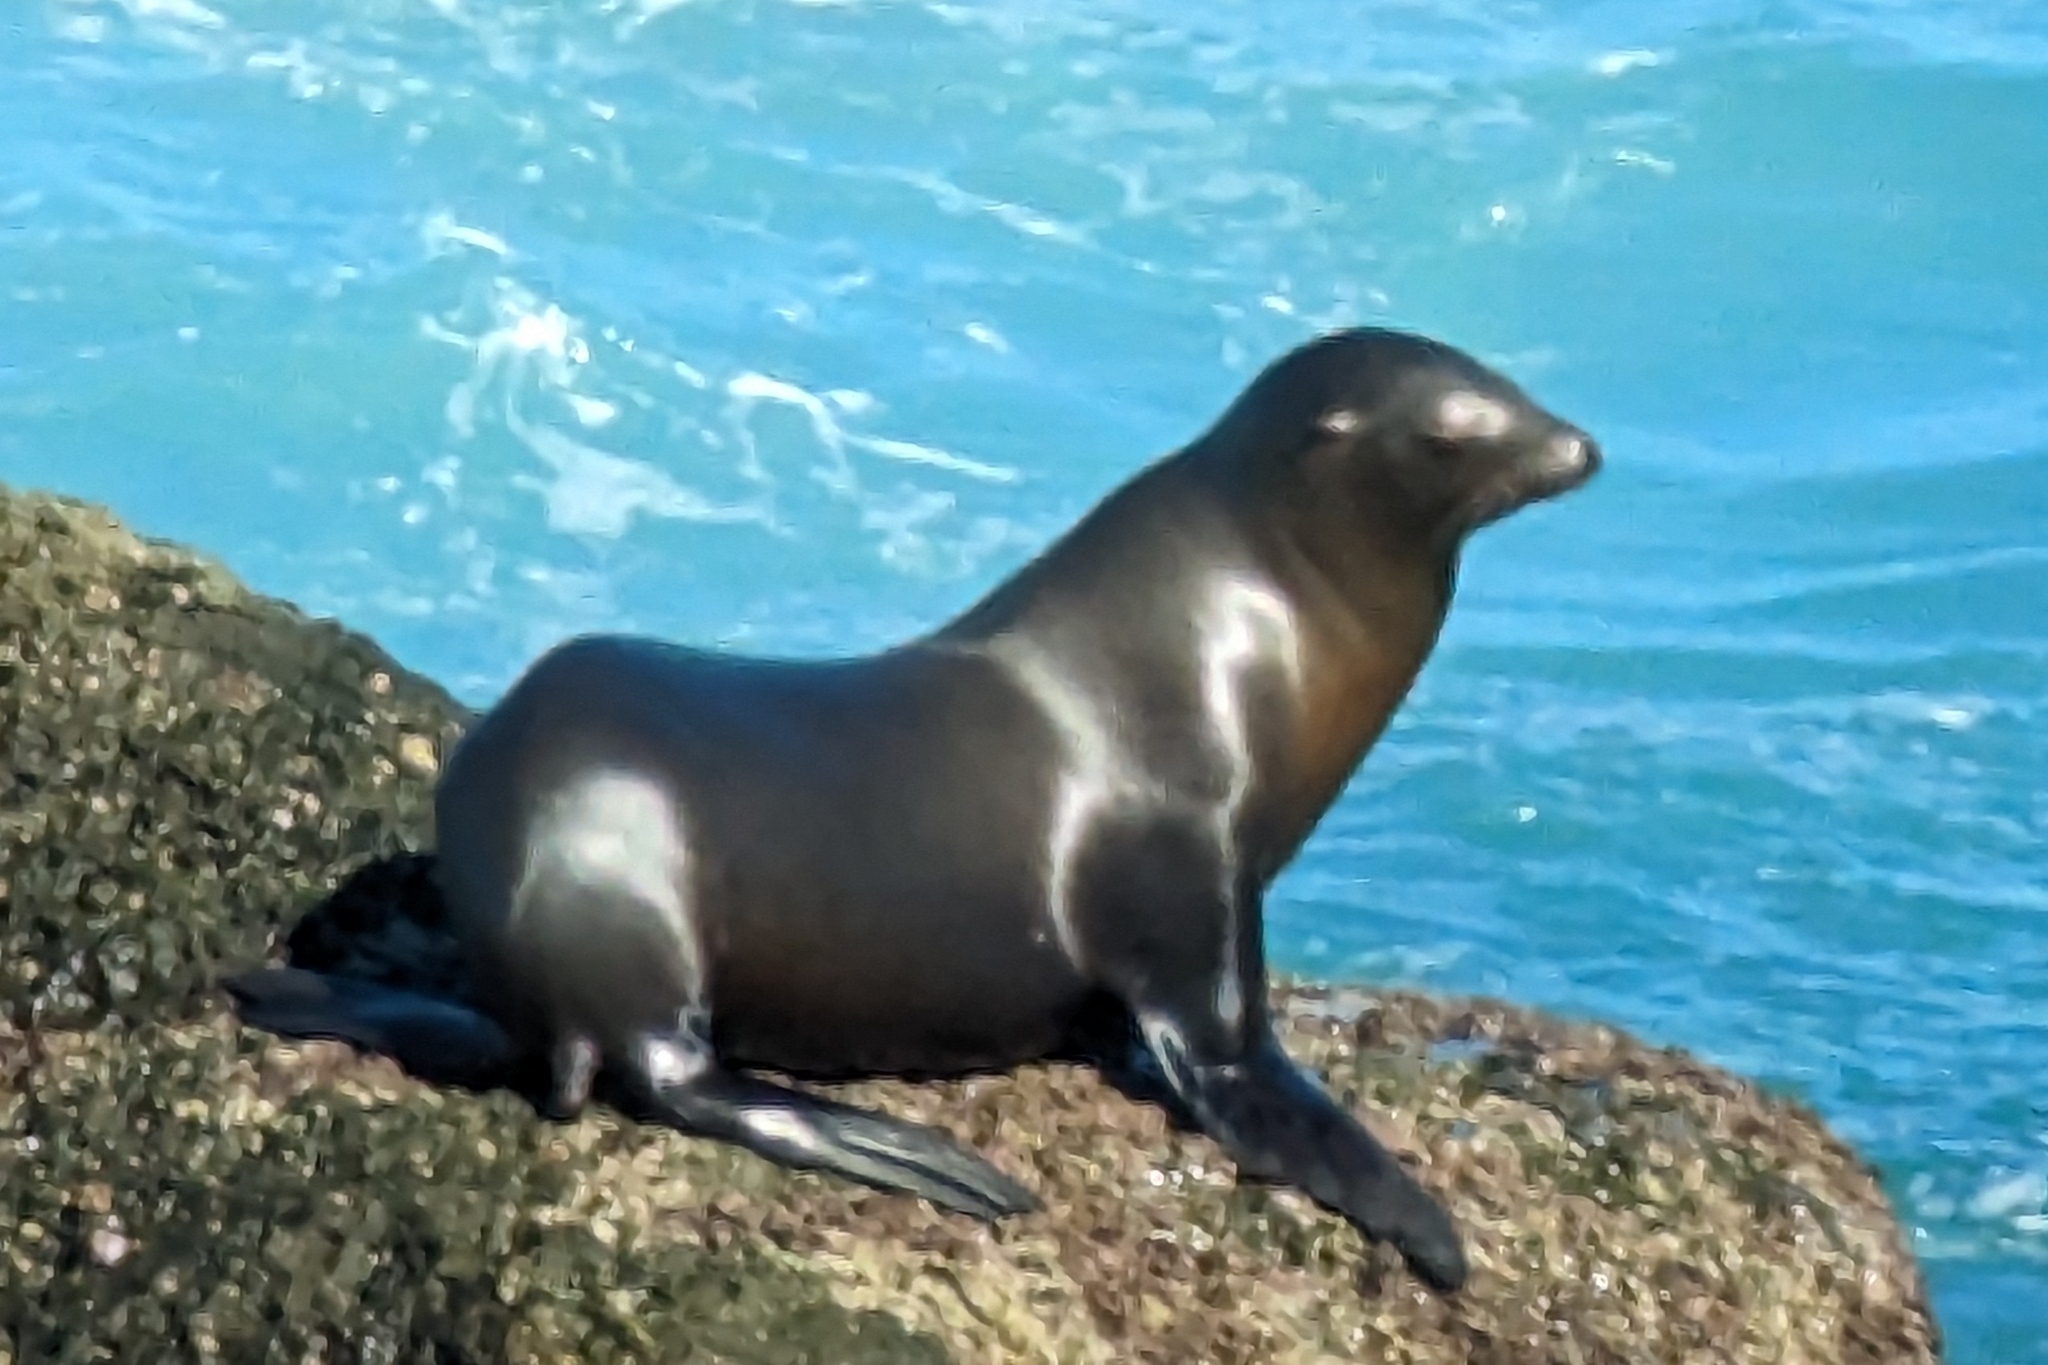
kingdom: Animalia
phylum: Chordata
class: Mammalia
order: Carnivora
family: Otariidae
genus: Zalophus
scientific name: Zalophus californianus
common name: California sea lion
